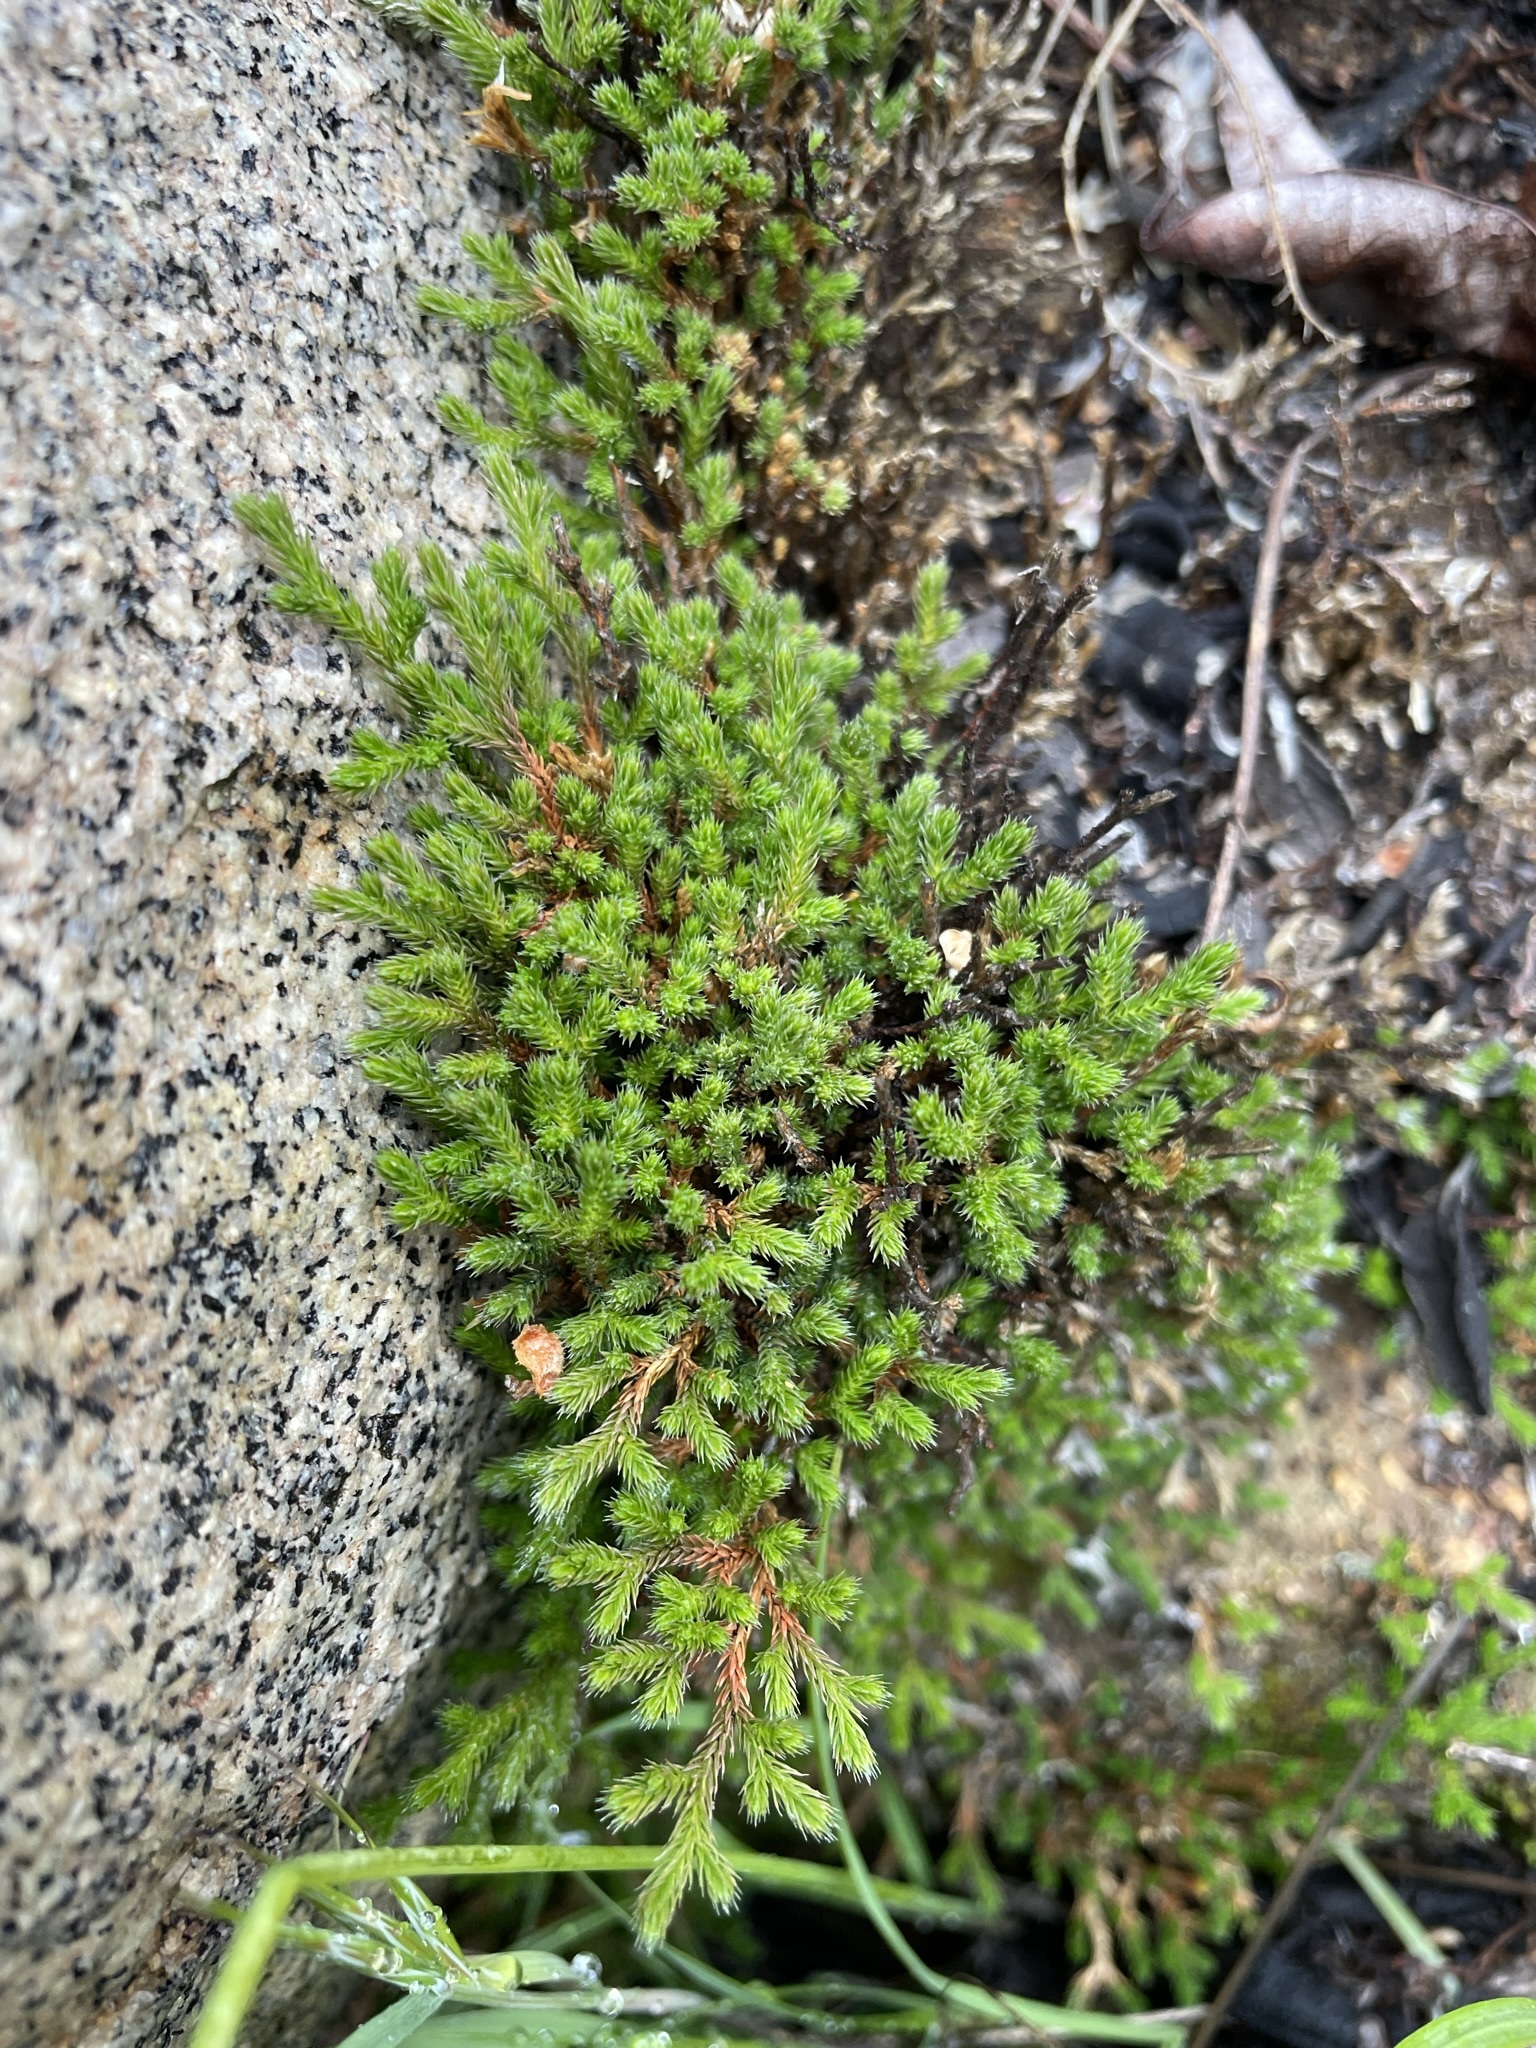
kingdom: Plantae
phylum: Tracheophyta
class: Lycopodiopsida
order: Selaginellales
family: Selaginellaceae
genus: Selaginella
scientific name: Selaginella bigelovii
